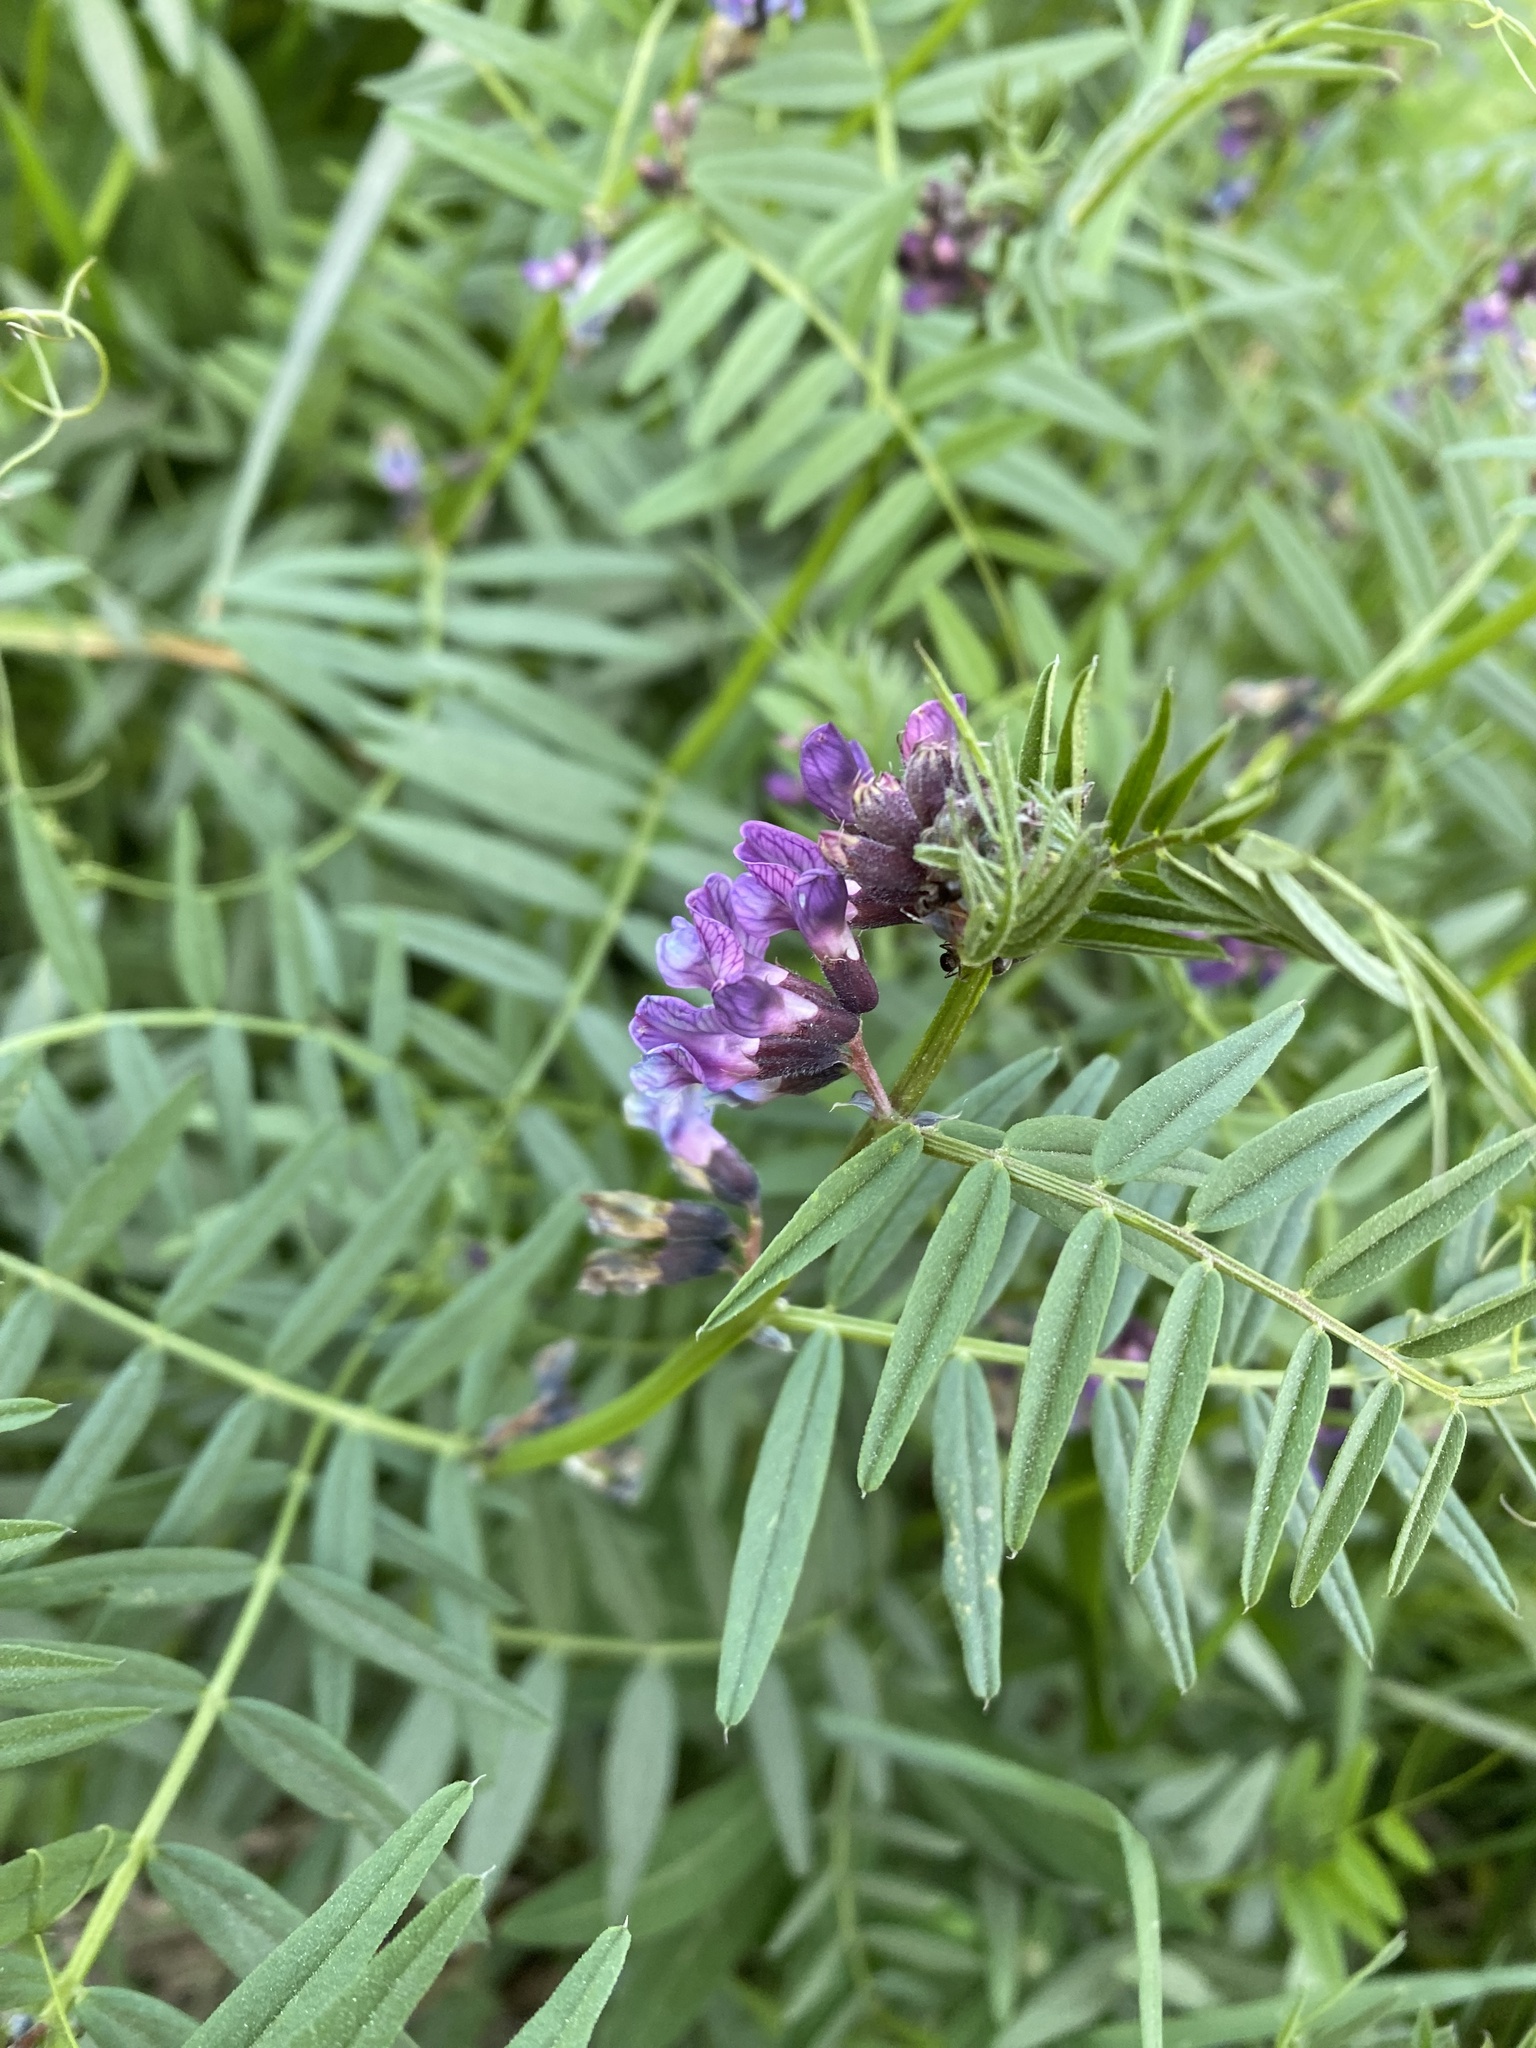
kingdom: Plantae
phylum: Tracheophyta
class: Magnoliopsida
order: Fabales
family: Fabaceae
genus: Vicia
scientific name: Vicia sepium
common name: Bush vetch
